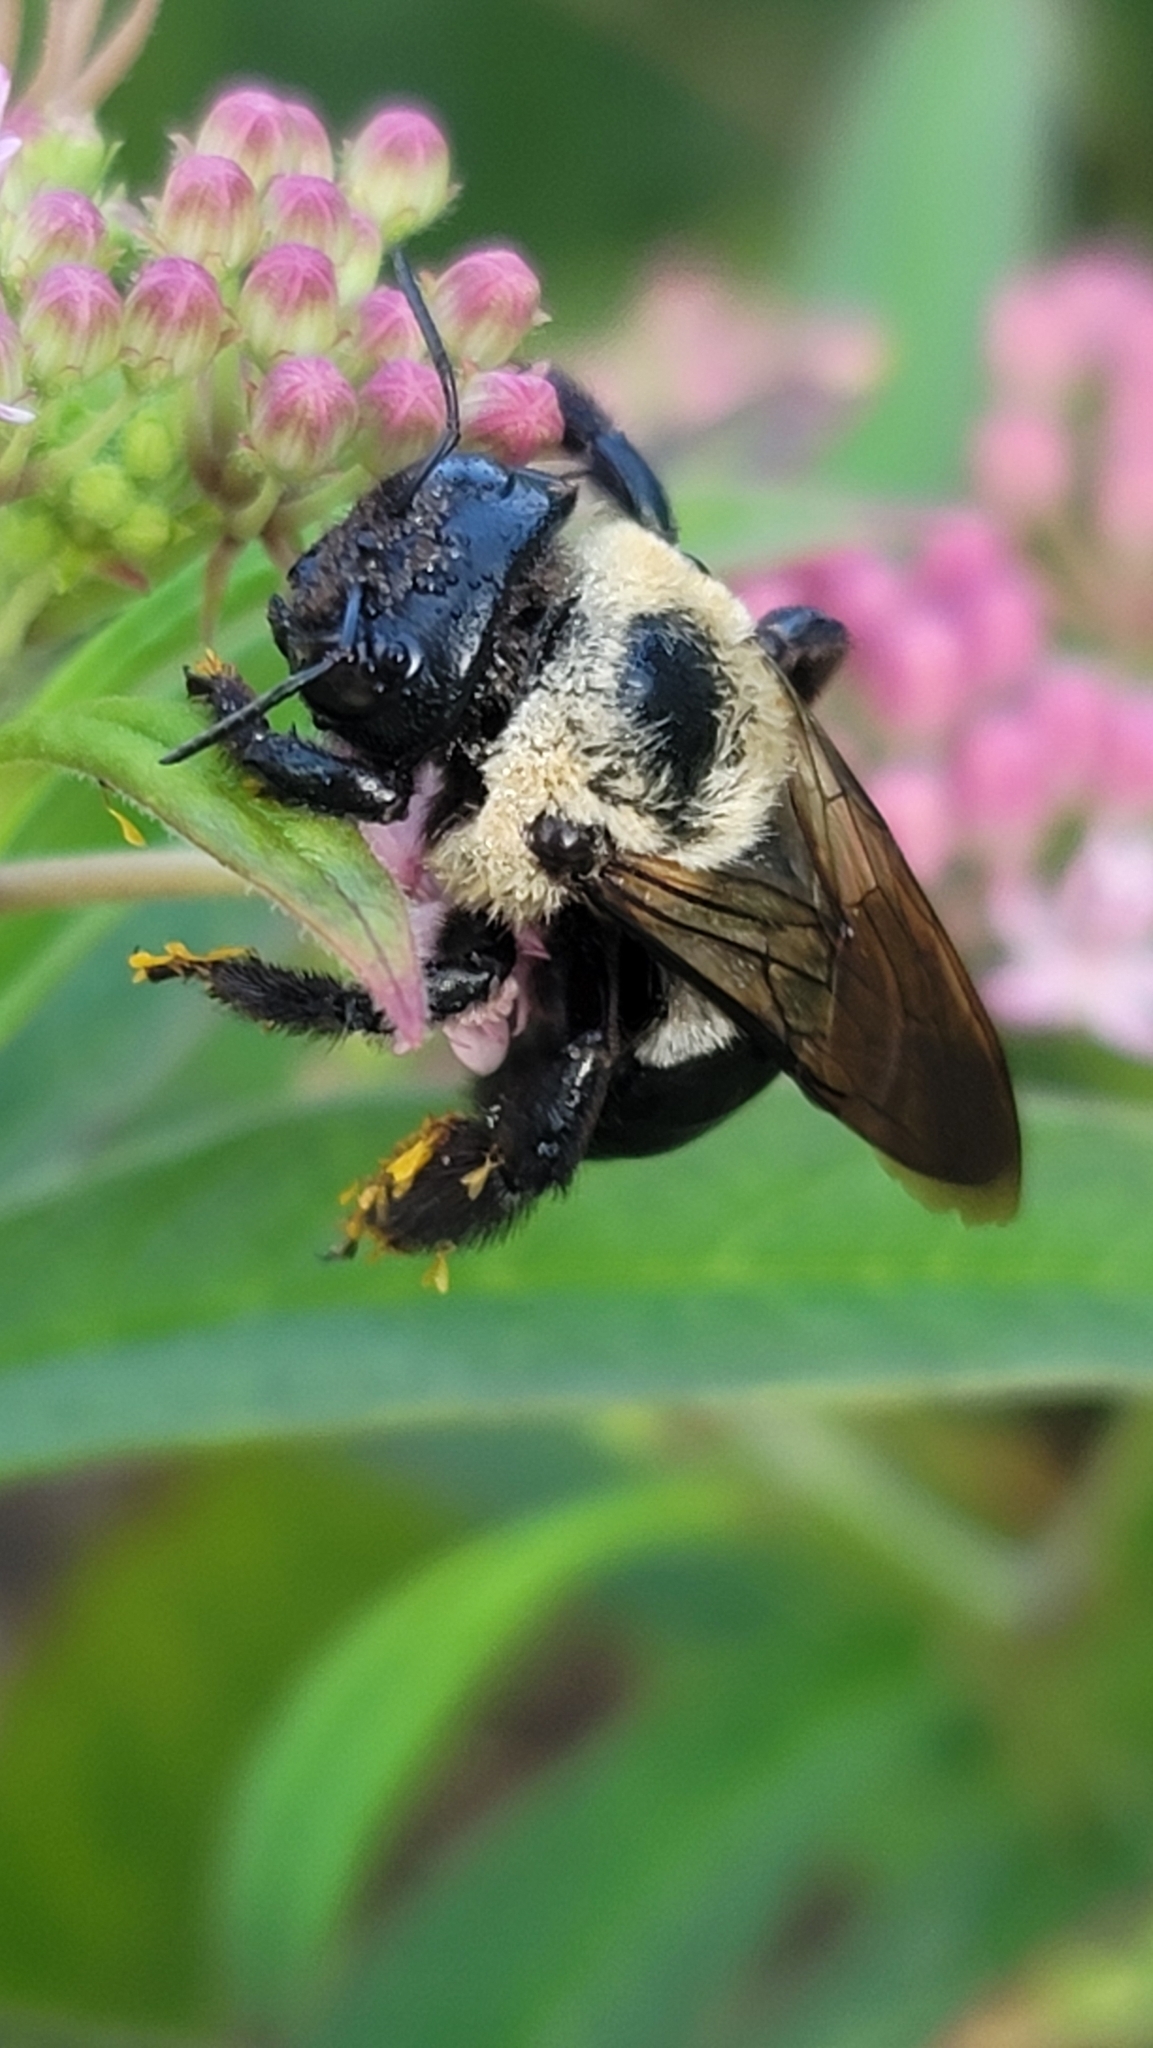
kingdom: Animalia
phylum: Arthropoda
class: Insecta
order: Hymenoptera
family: Apidae
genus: Xylocopa
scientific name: Xylocopa virginica
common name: Carpenter bee
